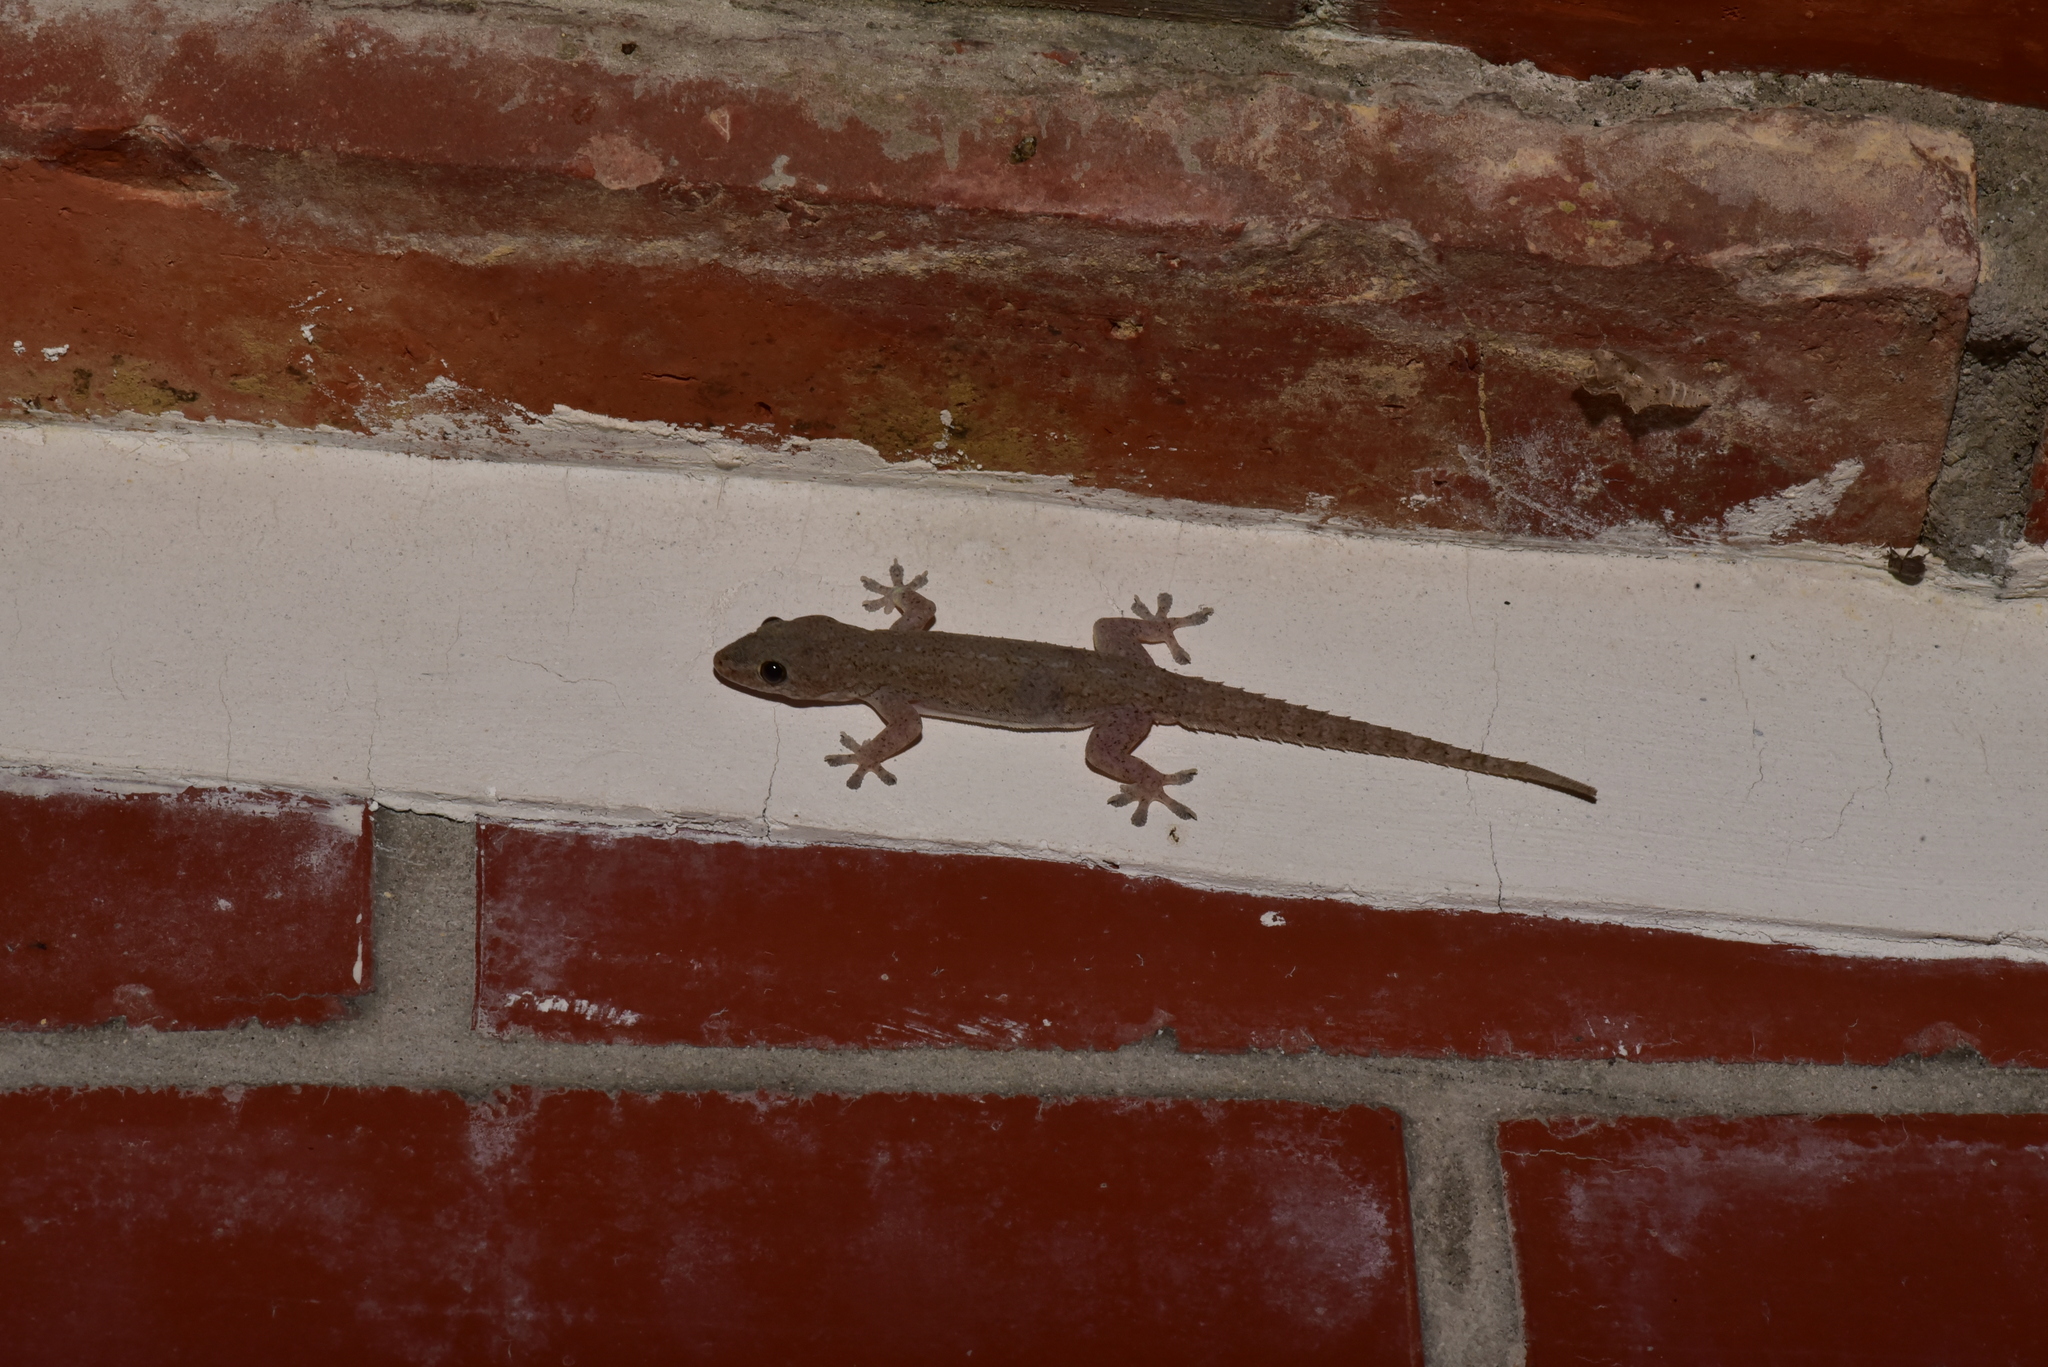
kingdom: Animalia
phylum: Chordata
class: Squamata
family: Gekkonidae
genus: Hemidactylus
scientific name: Hemidactylus frenatus
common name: Common house gecko
